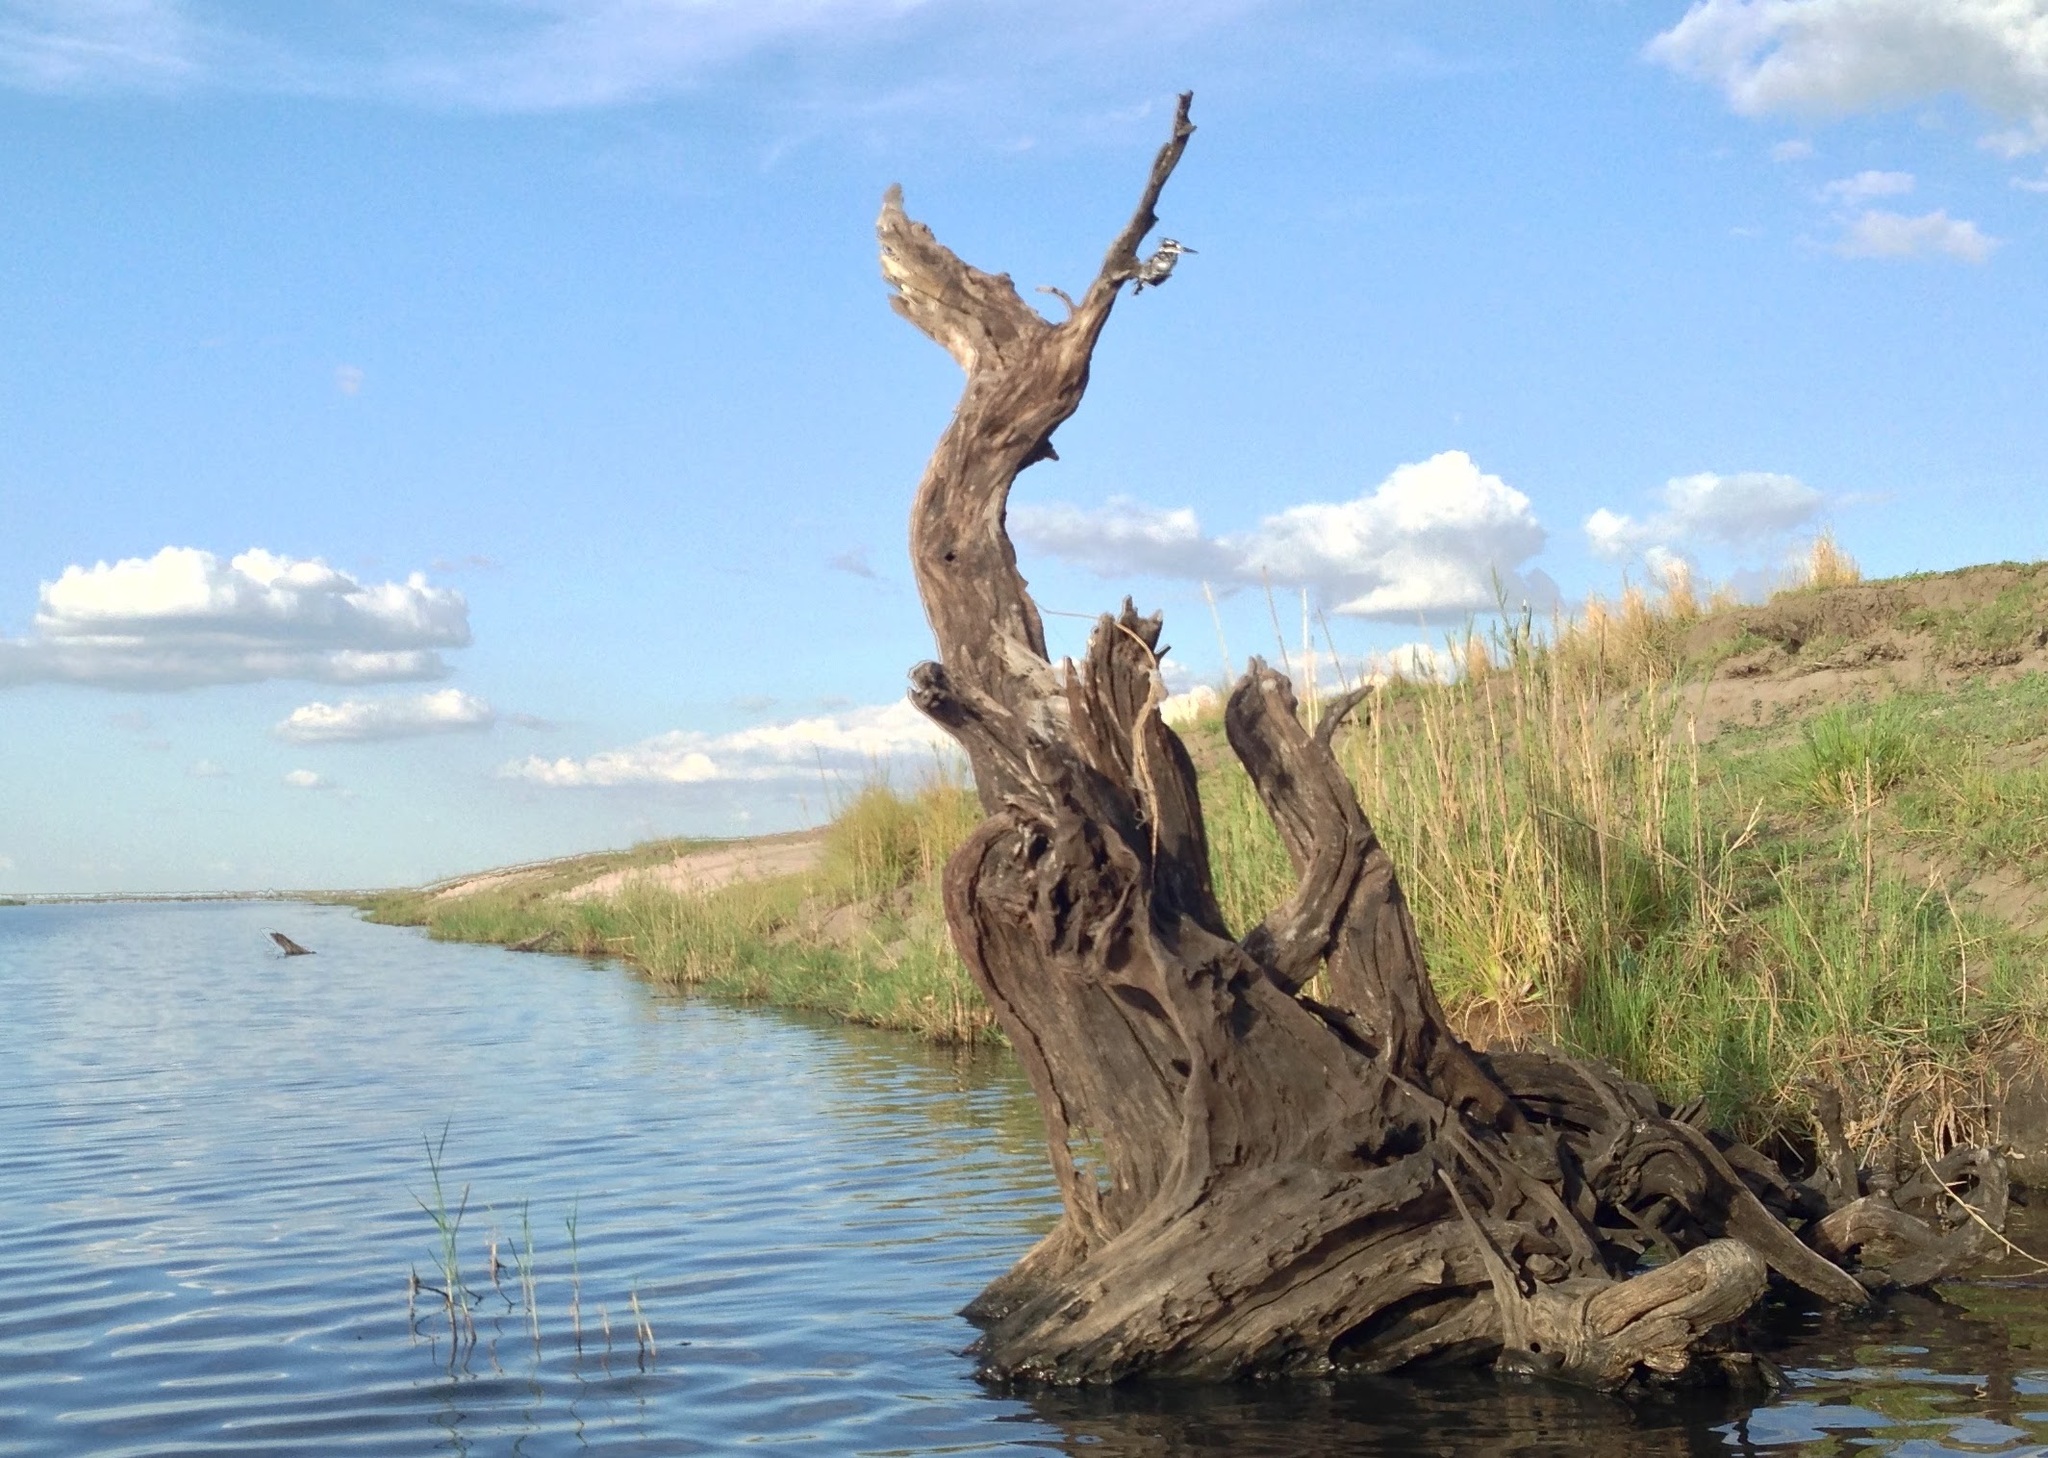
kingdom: Animalia
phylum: Chordata
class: Aves
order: Coraciiformes
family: Alcedinidae
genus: Ceryle
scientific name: Ceryle rudis
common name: Pied kingfisher
